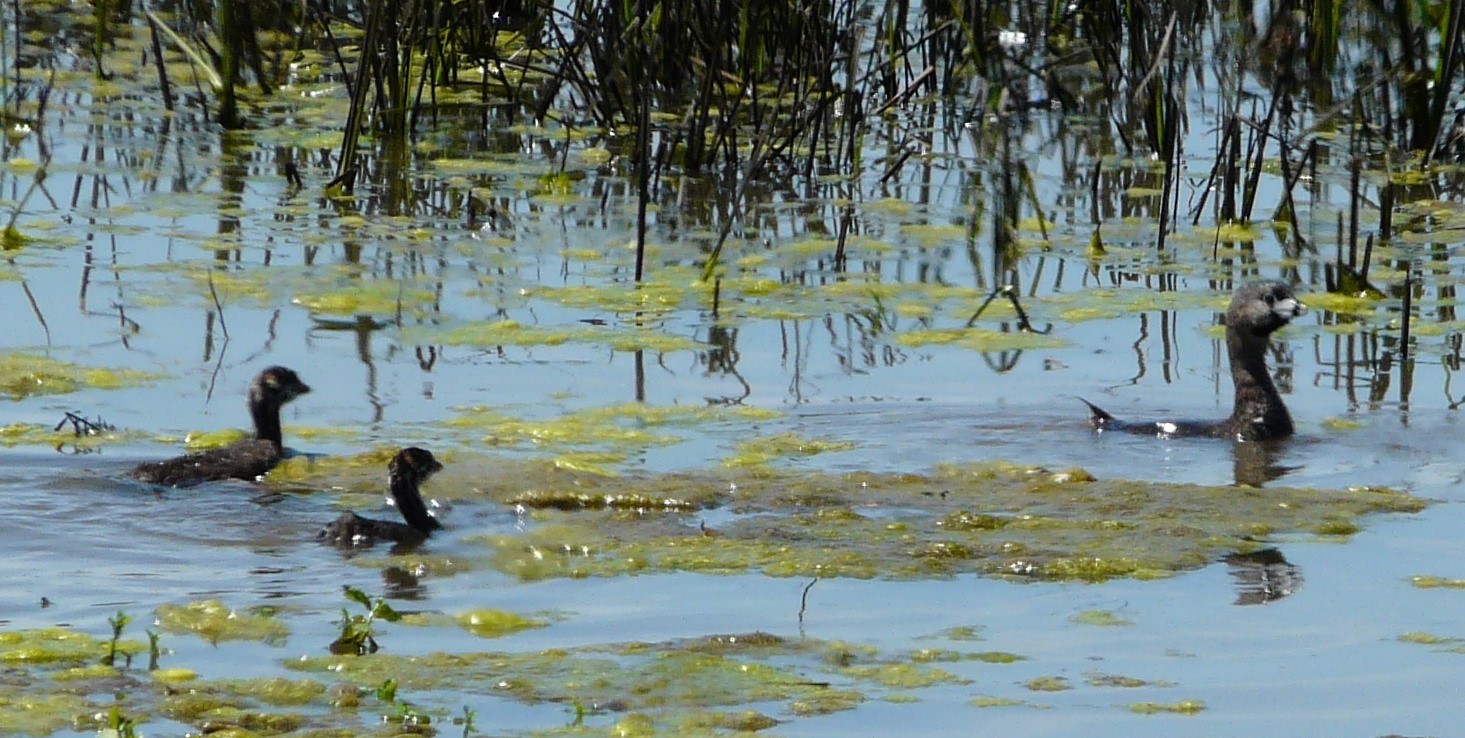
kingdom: Animalia
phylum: Chordata
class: Aves
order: Podicipediformes
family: Podicipedidae
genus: Podilymbus
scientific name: Podilymbus podiceps
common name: Pied-billed grebe
